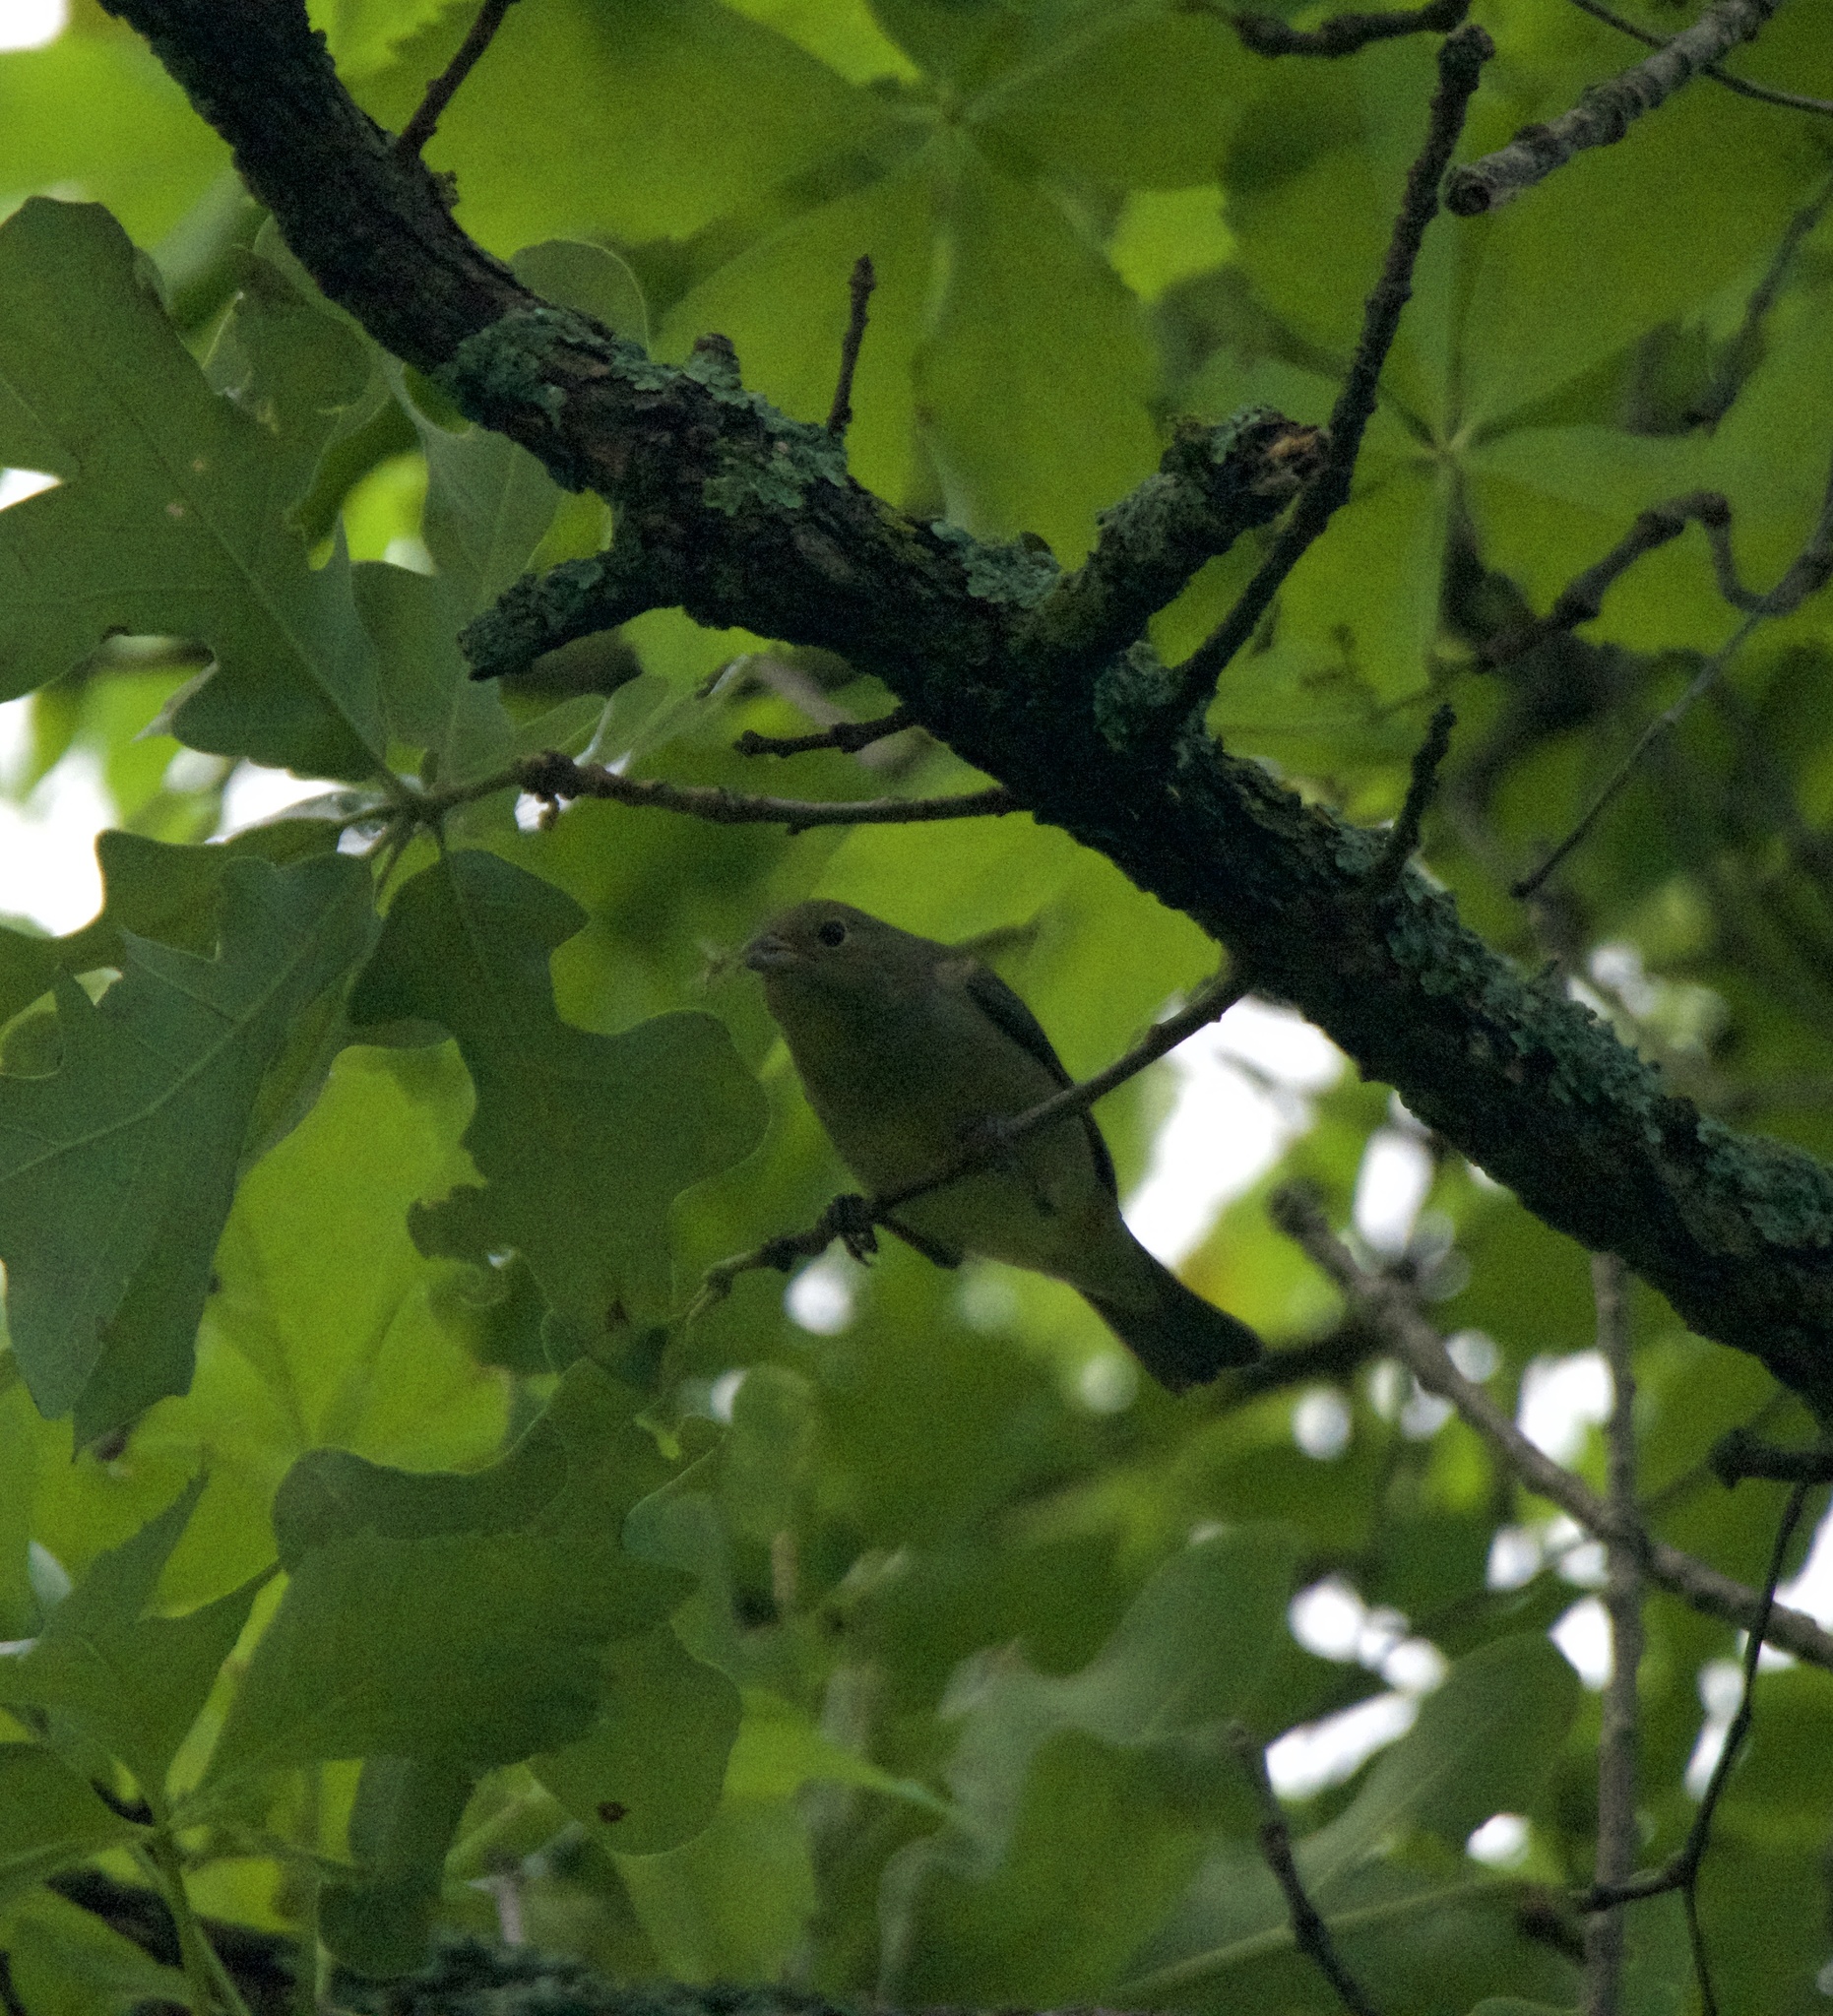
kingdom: Animalia
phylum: Chordata
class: Aves
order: Passeriformes
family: Cardinalidae
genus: Passerina
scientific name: Passerina ciris
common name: Painted bunting
